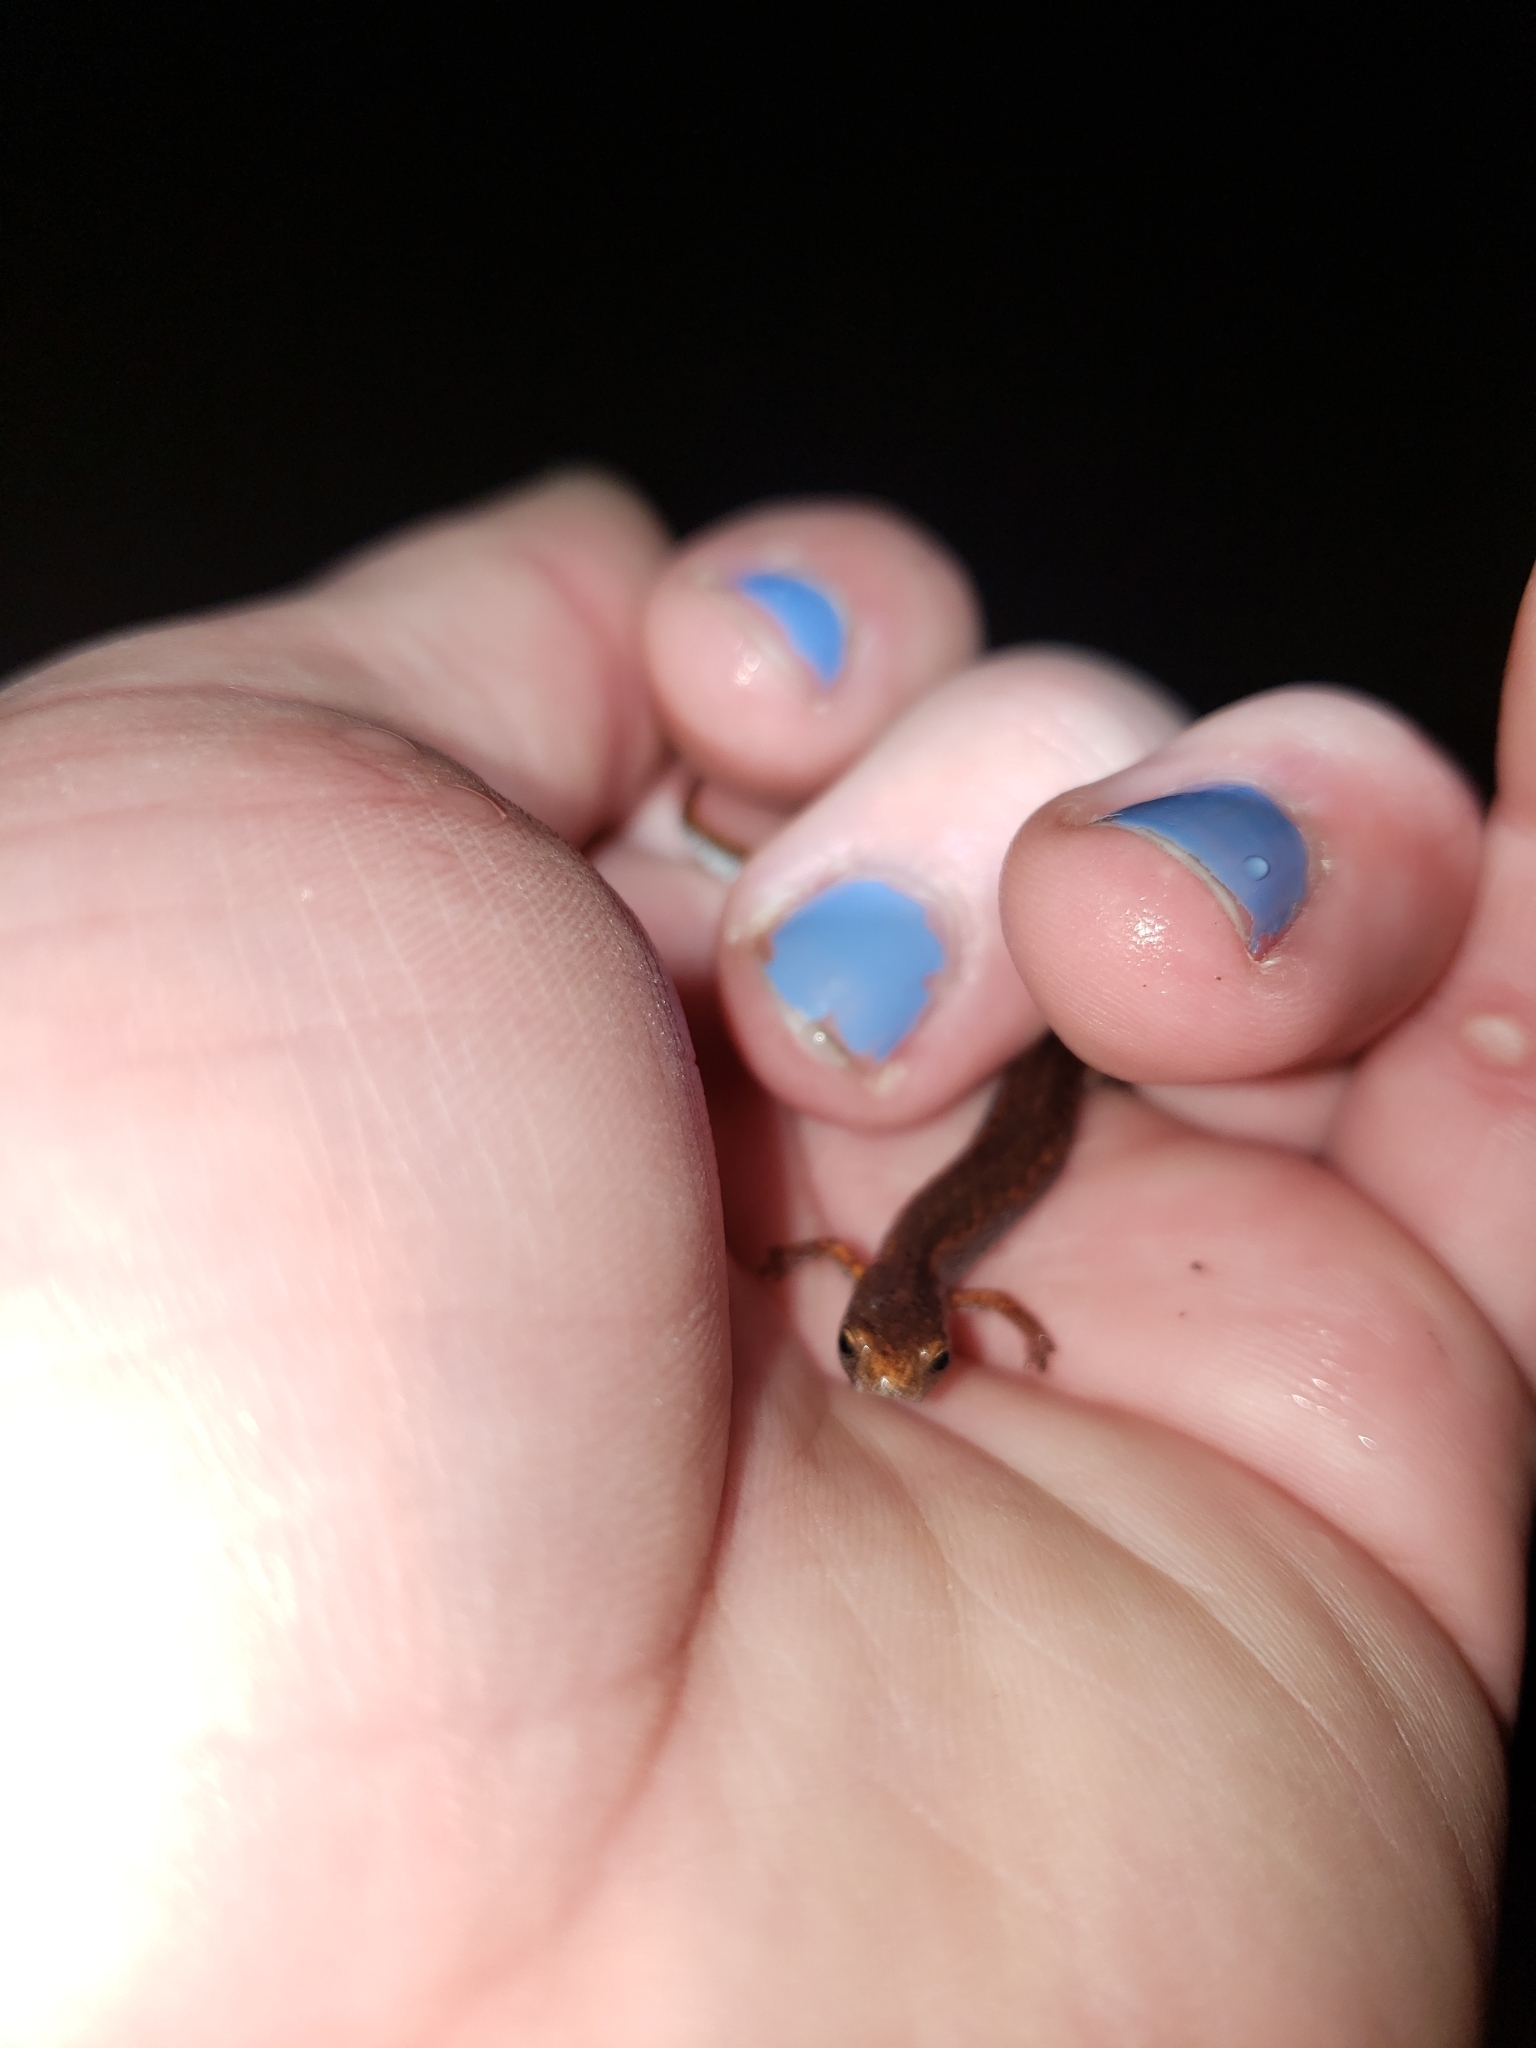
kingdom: Animalia
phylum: Chordata
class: Amphibia
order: Caudata
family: Plethodontidae
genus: Hemidactylium
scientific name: Hemidactylium scutatum
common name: Four-toed salamander
